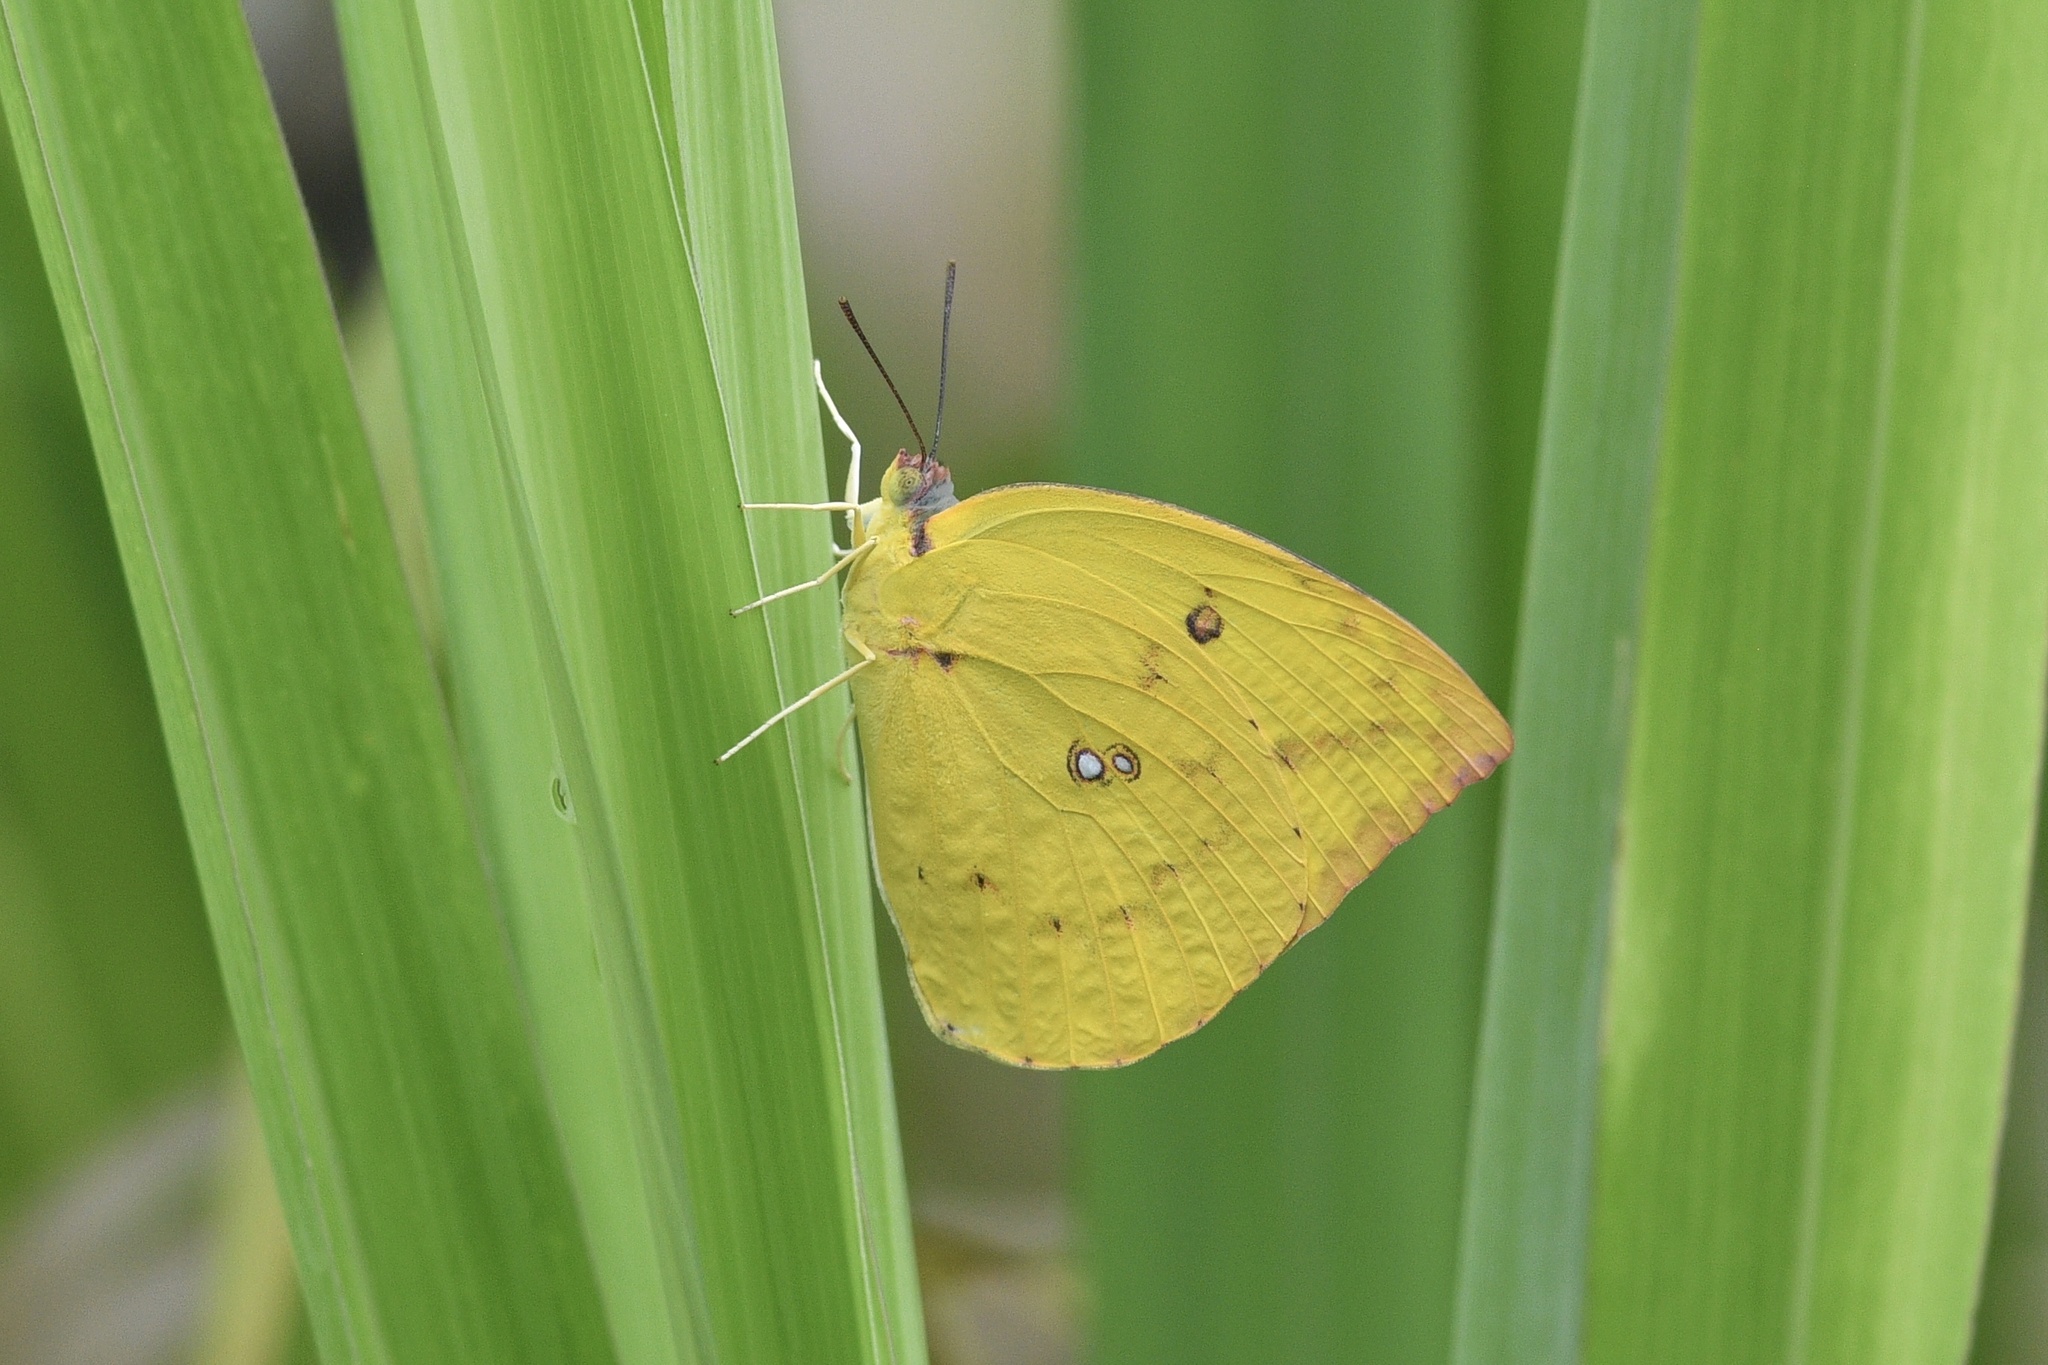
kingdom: Animalia
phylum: Arthropoda
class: Insecta
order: Lepidoptera
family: Pieridae
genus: Catopsilia
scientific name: Catopsilia pomona
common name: Common emigrant
